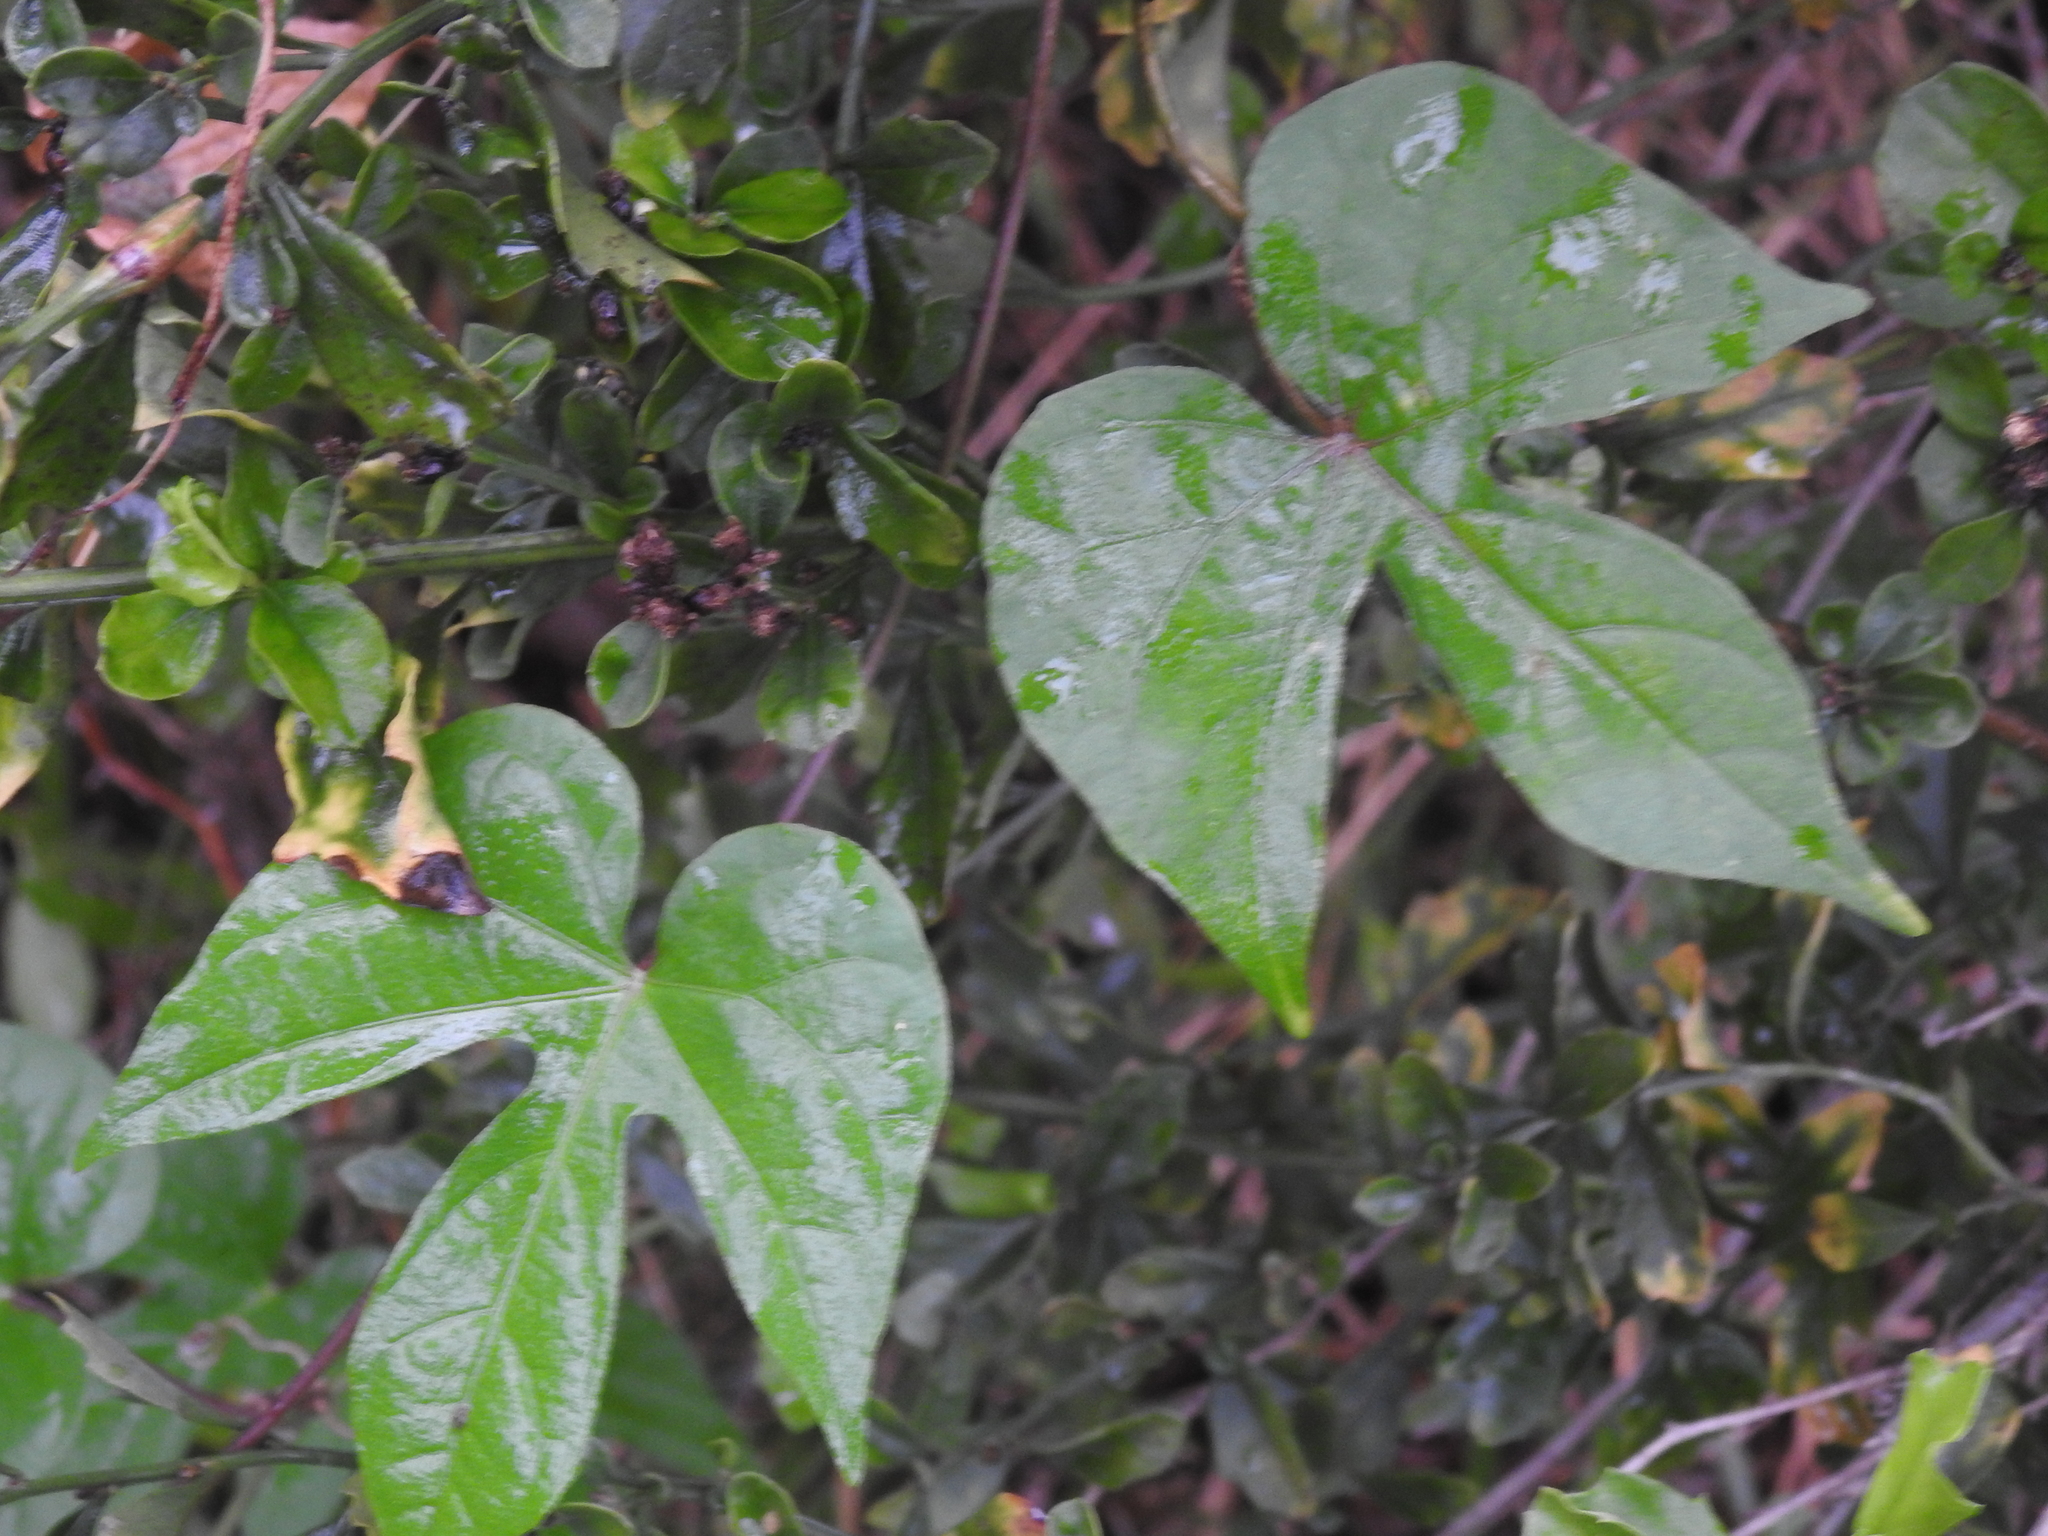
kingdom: Plantae
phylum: Tracheophyta
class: Magnoliopsida
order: Solanales
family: Convolvulaceae
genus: Ipomoea
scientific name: Ipomoea indica
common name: Blue dawnflower
